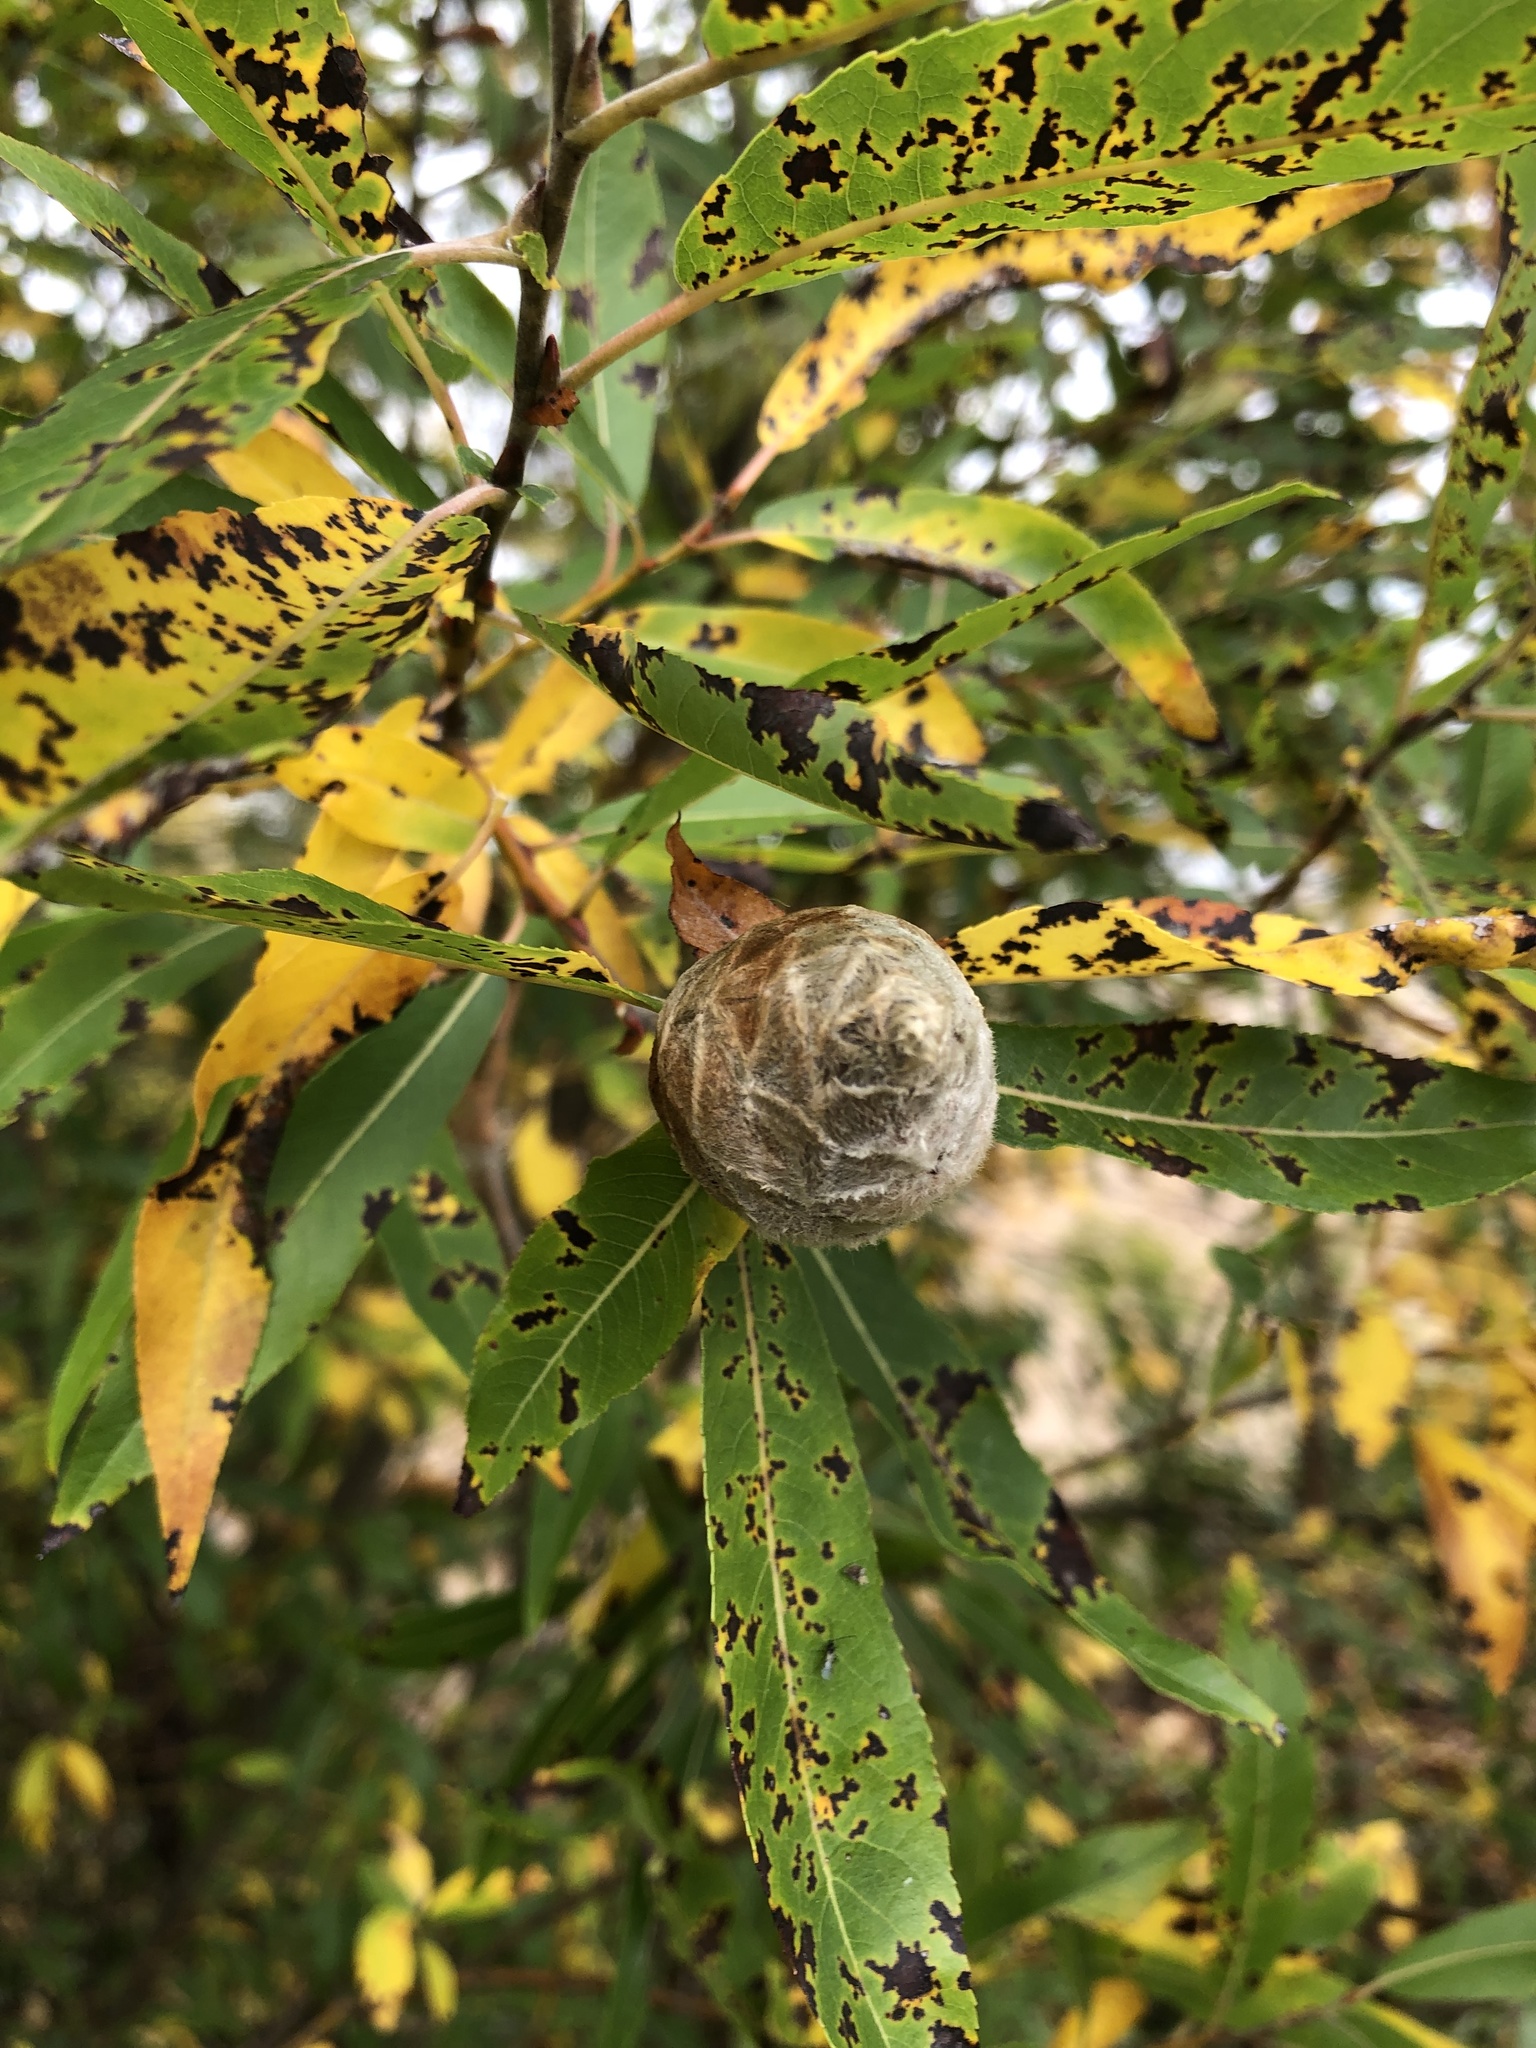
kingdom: Animalia
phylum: Arthropoda
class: Insecta
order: Diptera
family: Cecidomyiidae
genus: Rabdophaga
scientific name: Rabdophaga strobiloides
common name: Willow pinecone gall midge
